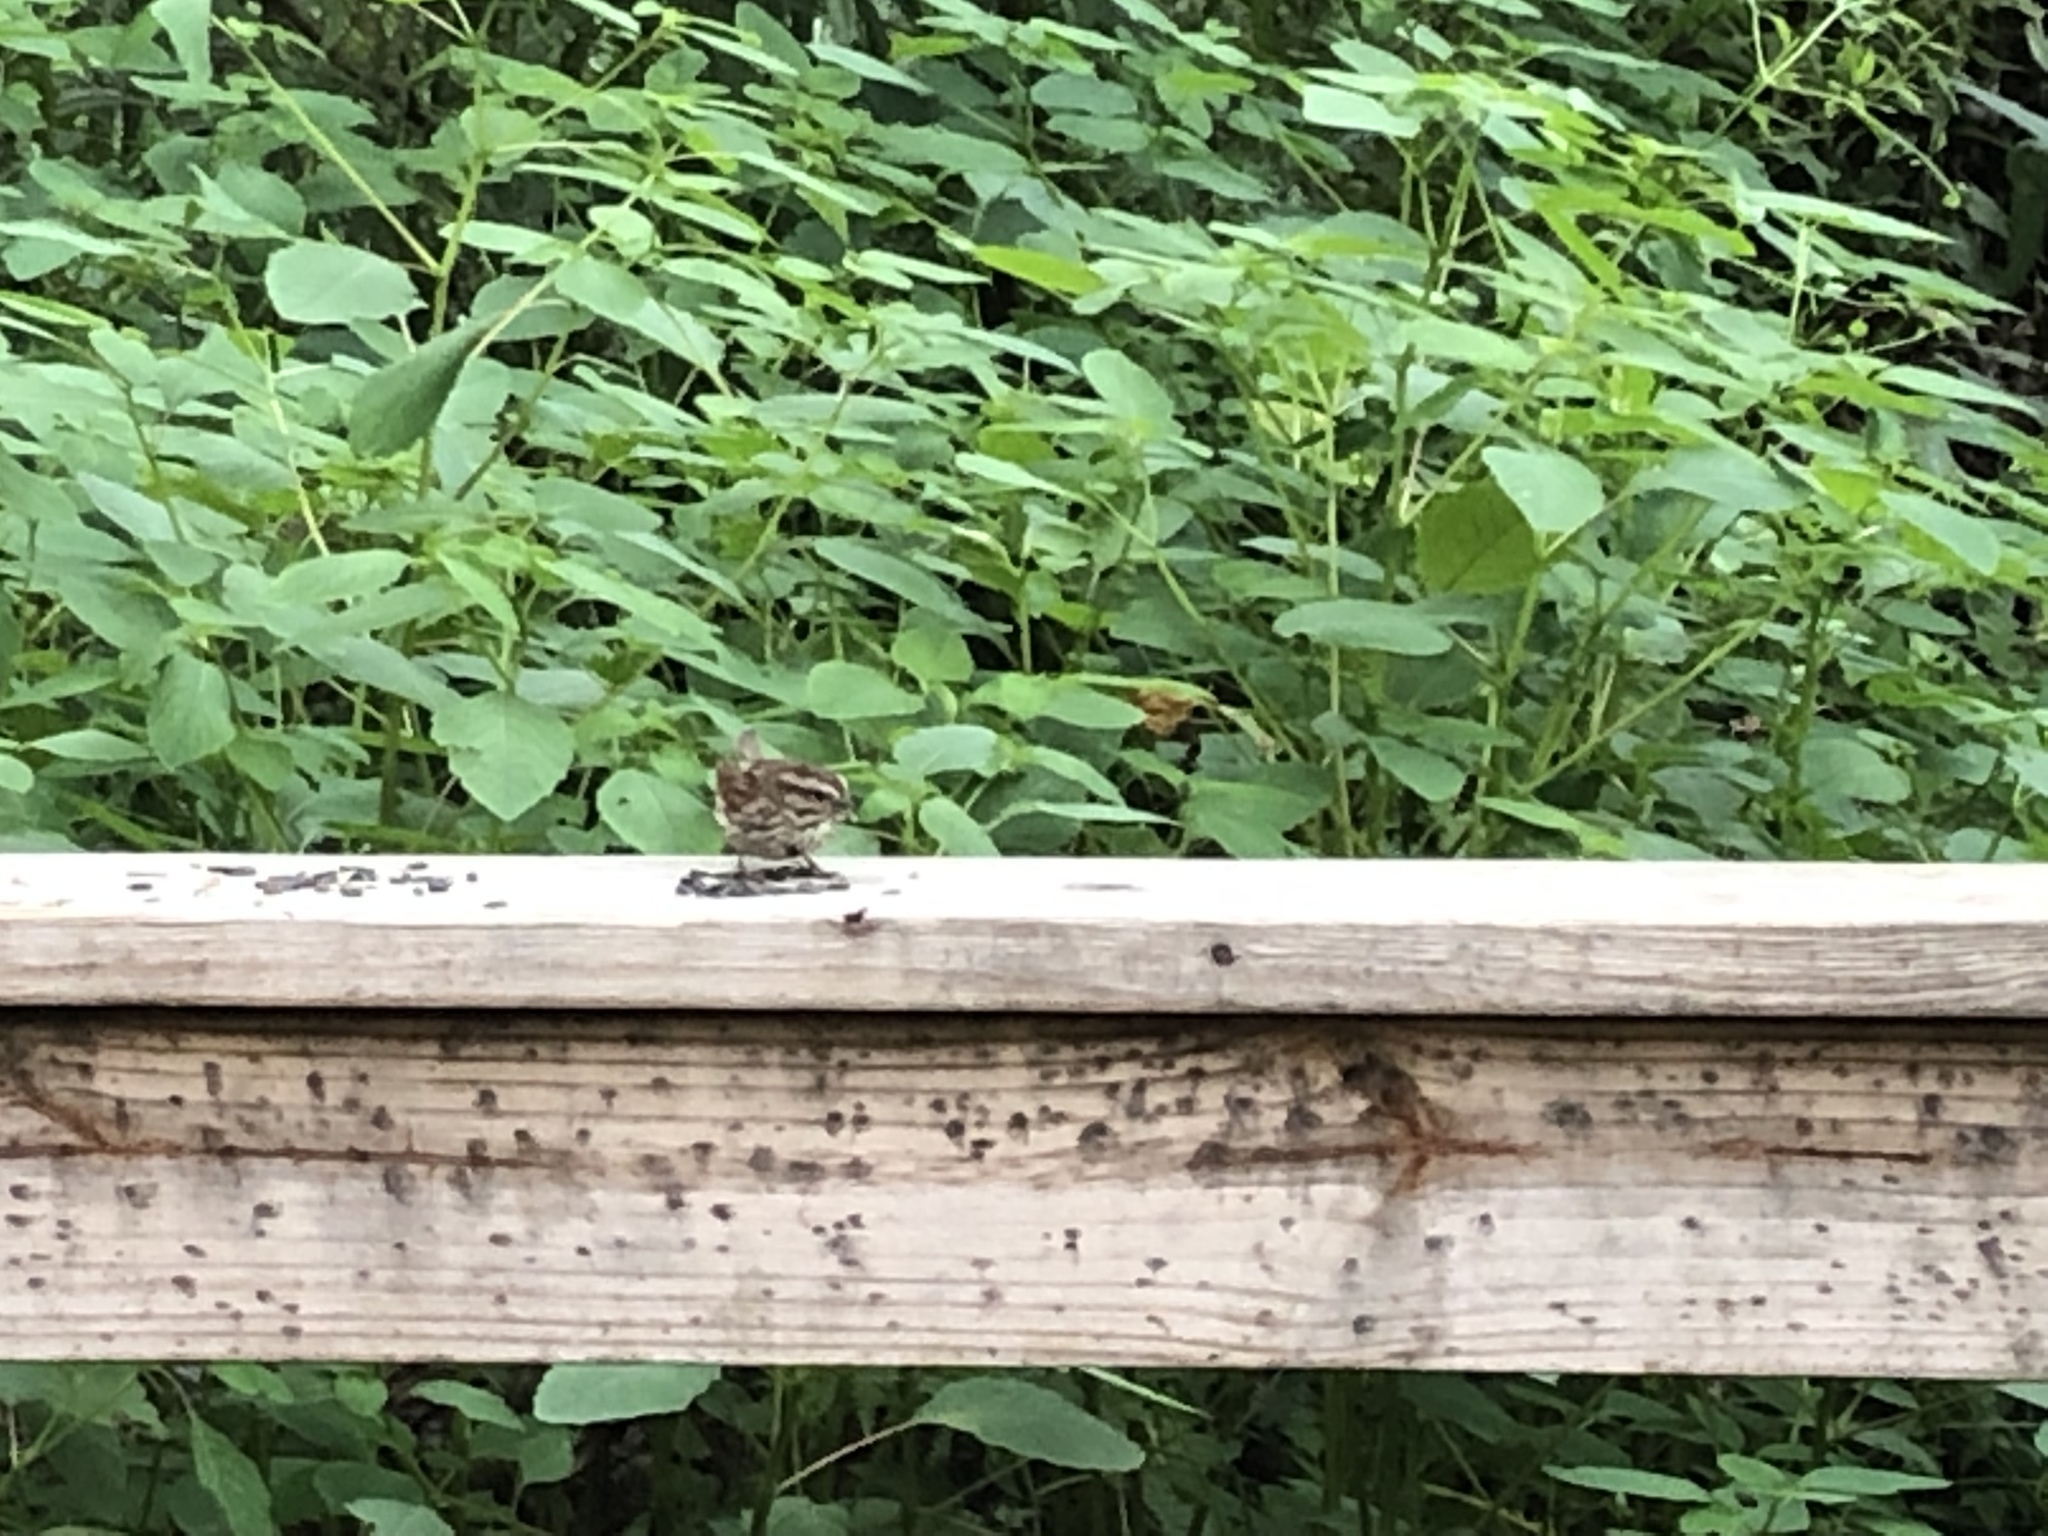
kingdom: Animalia
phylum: Chordata
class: Aves
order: Passeriformes
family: Passerellidae
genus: Melospiza
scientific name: Melospiza melodia
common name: Song sparrow
